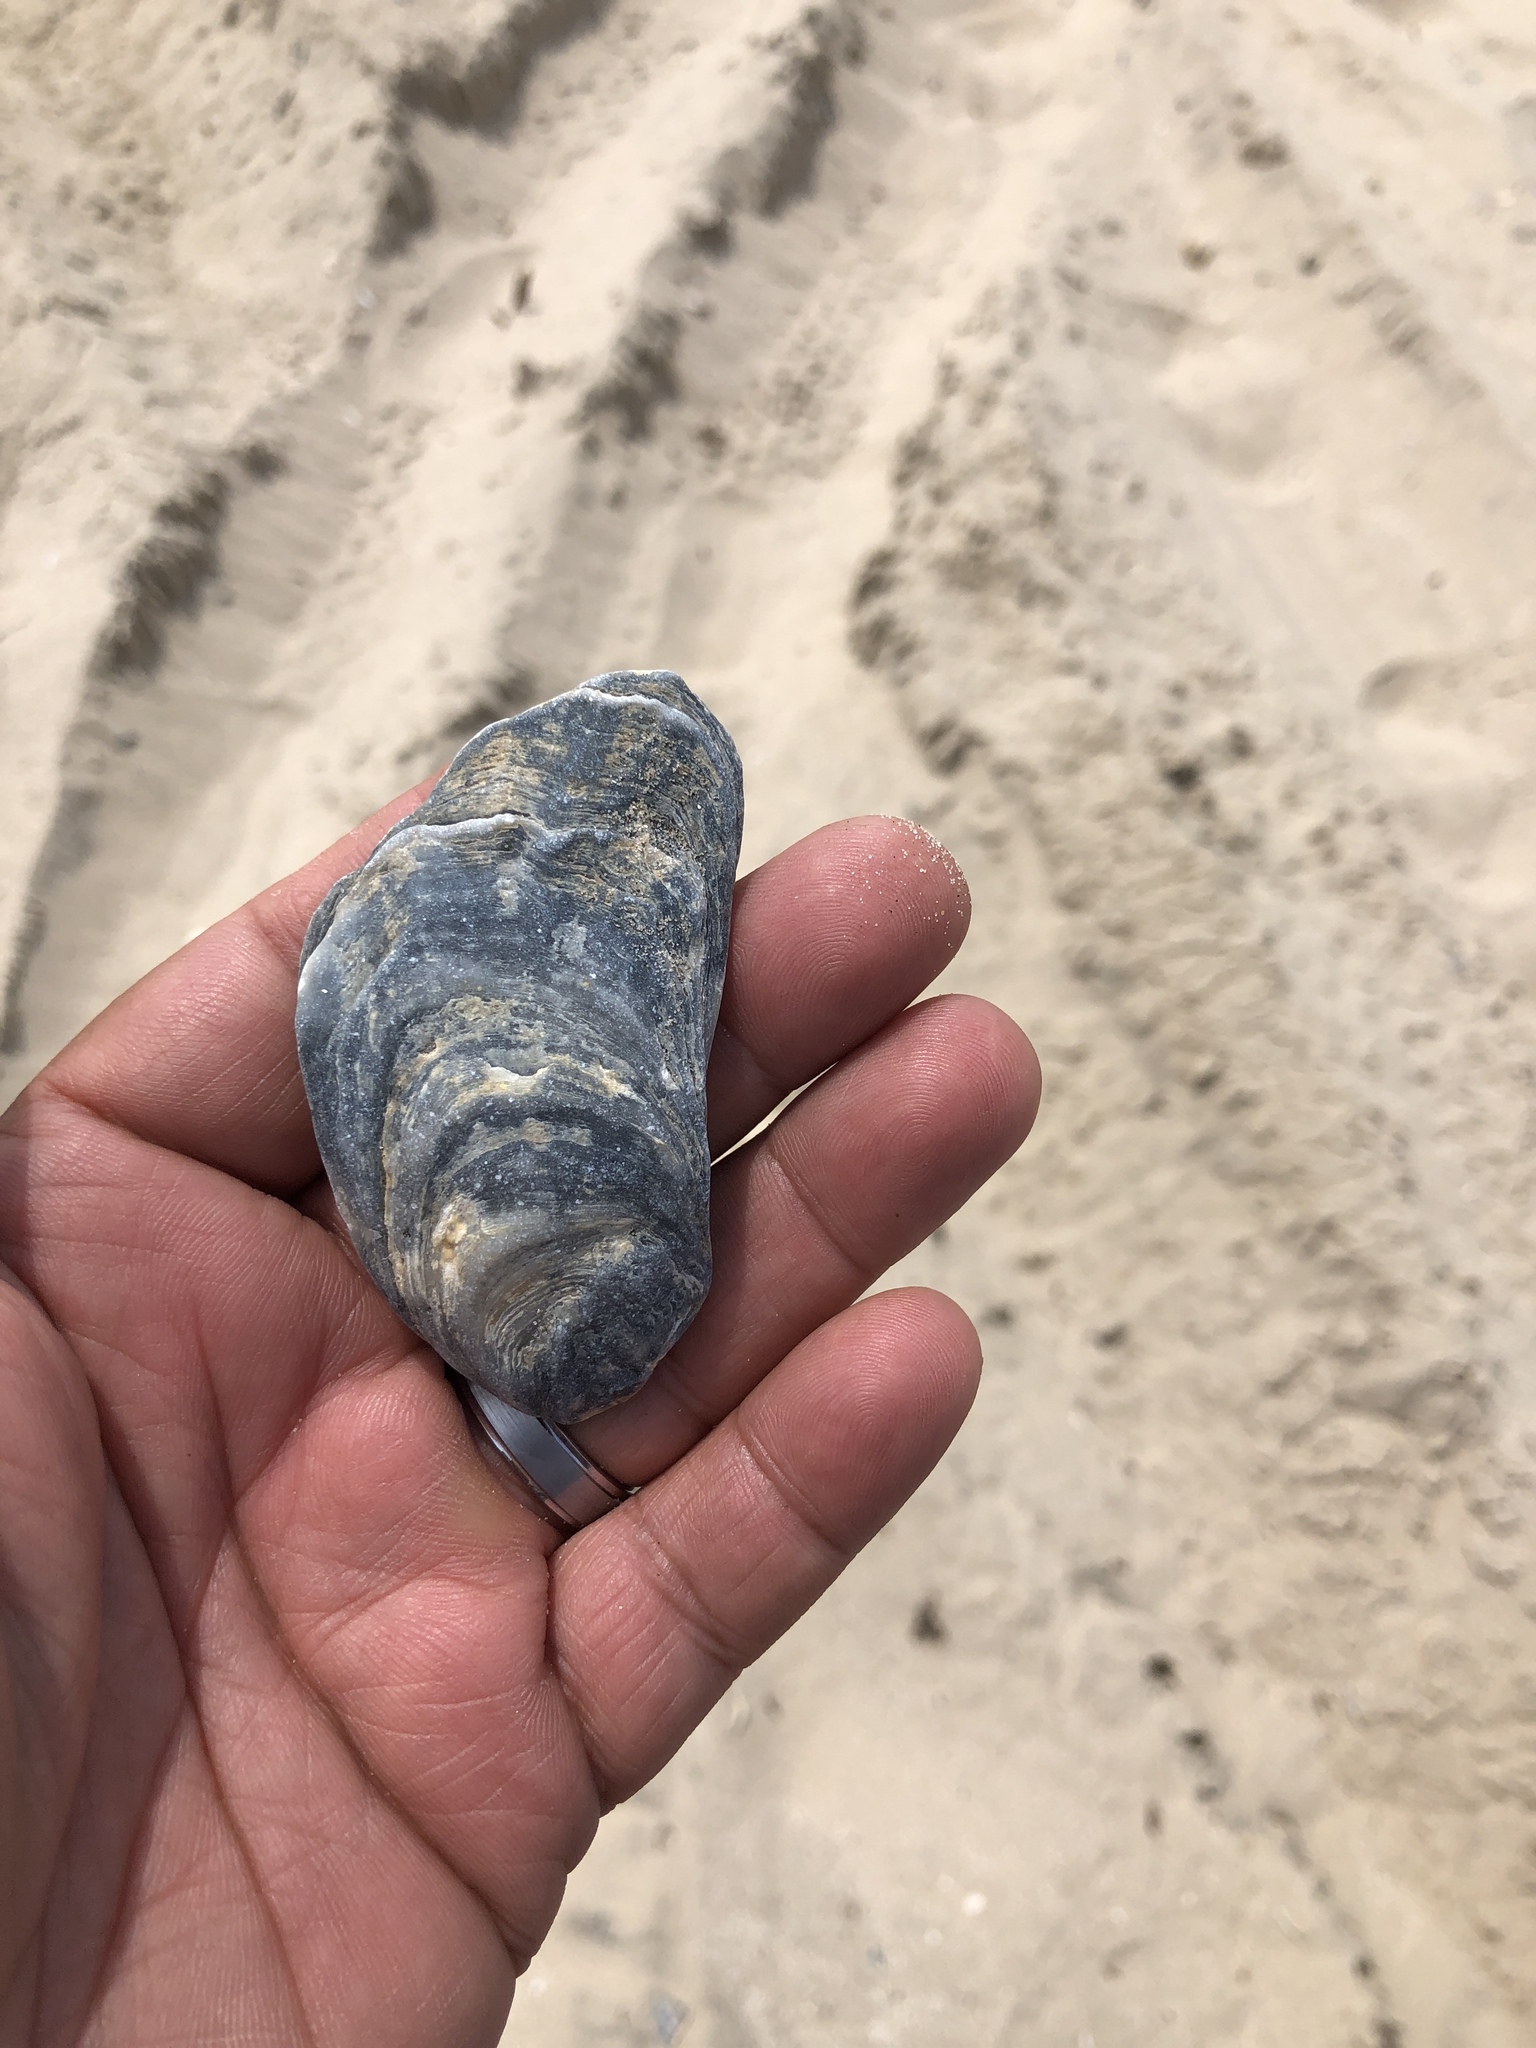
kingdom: Animalia
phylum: Mollusca
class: Bivalvia
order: Ostreida
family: Ostreidae
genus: Crassostrea
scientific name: Crassostrea virginica
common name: American oyster
